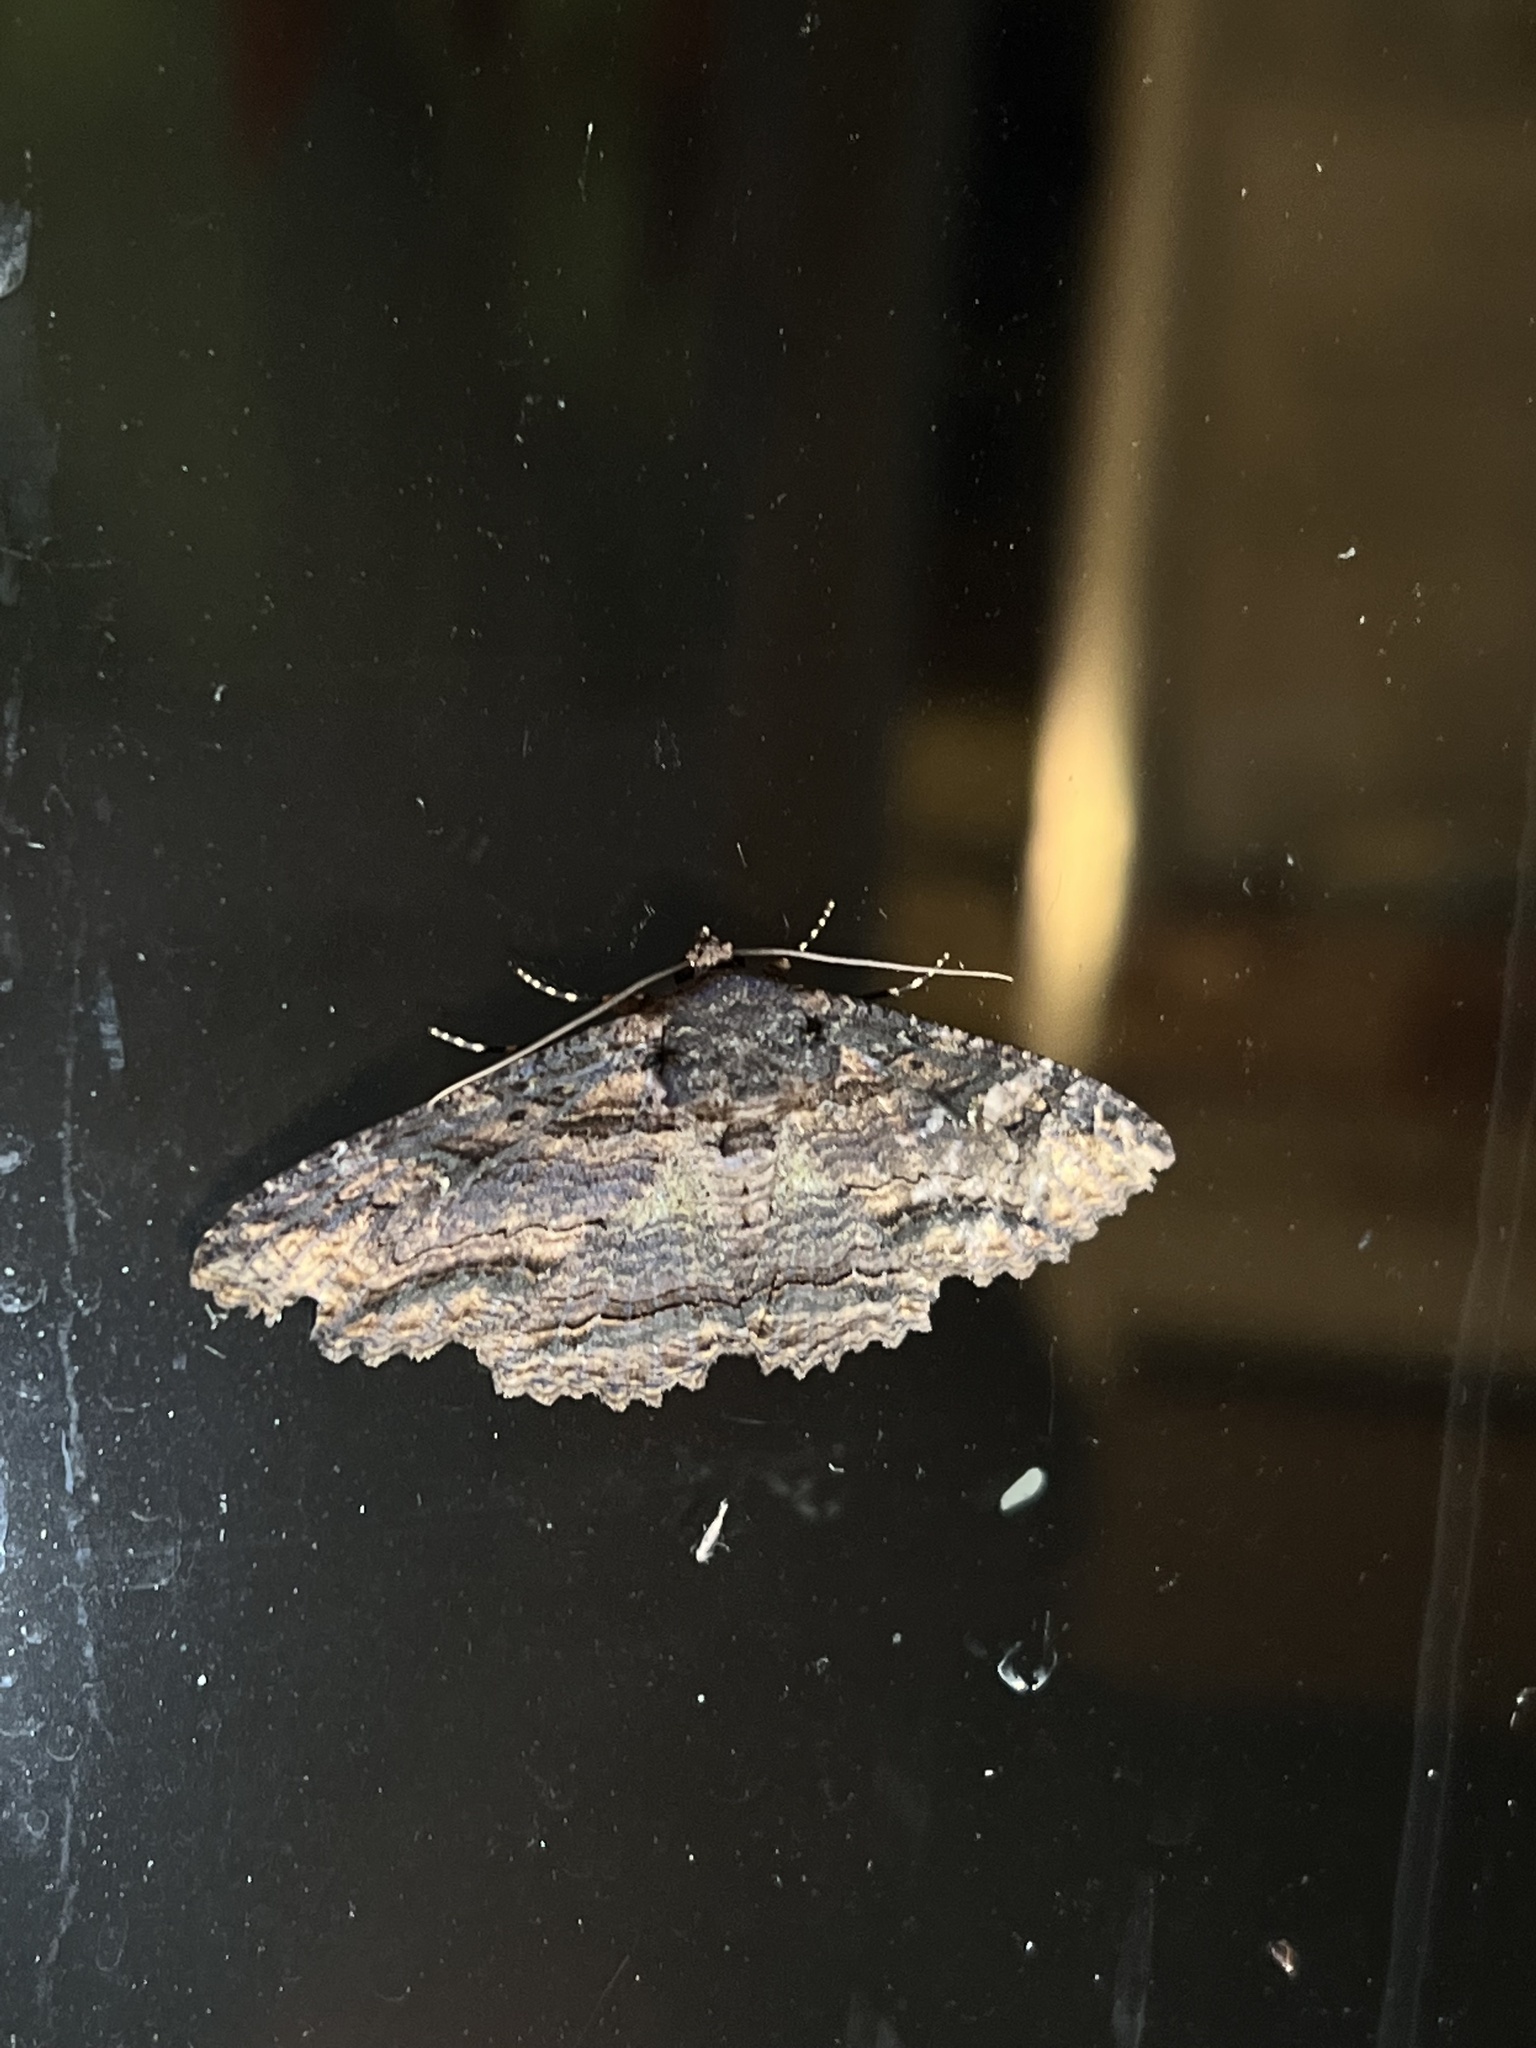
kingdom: Animalia
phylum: Arthropoda
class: Insecta
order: Lepidoptera
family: Erebidae
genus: Zale
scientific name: Zale lunata
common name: Lunate zale moth
